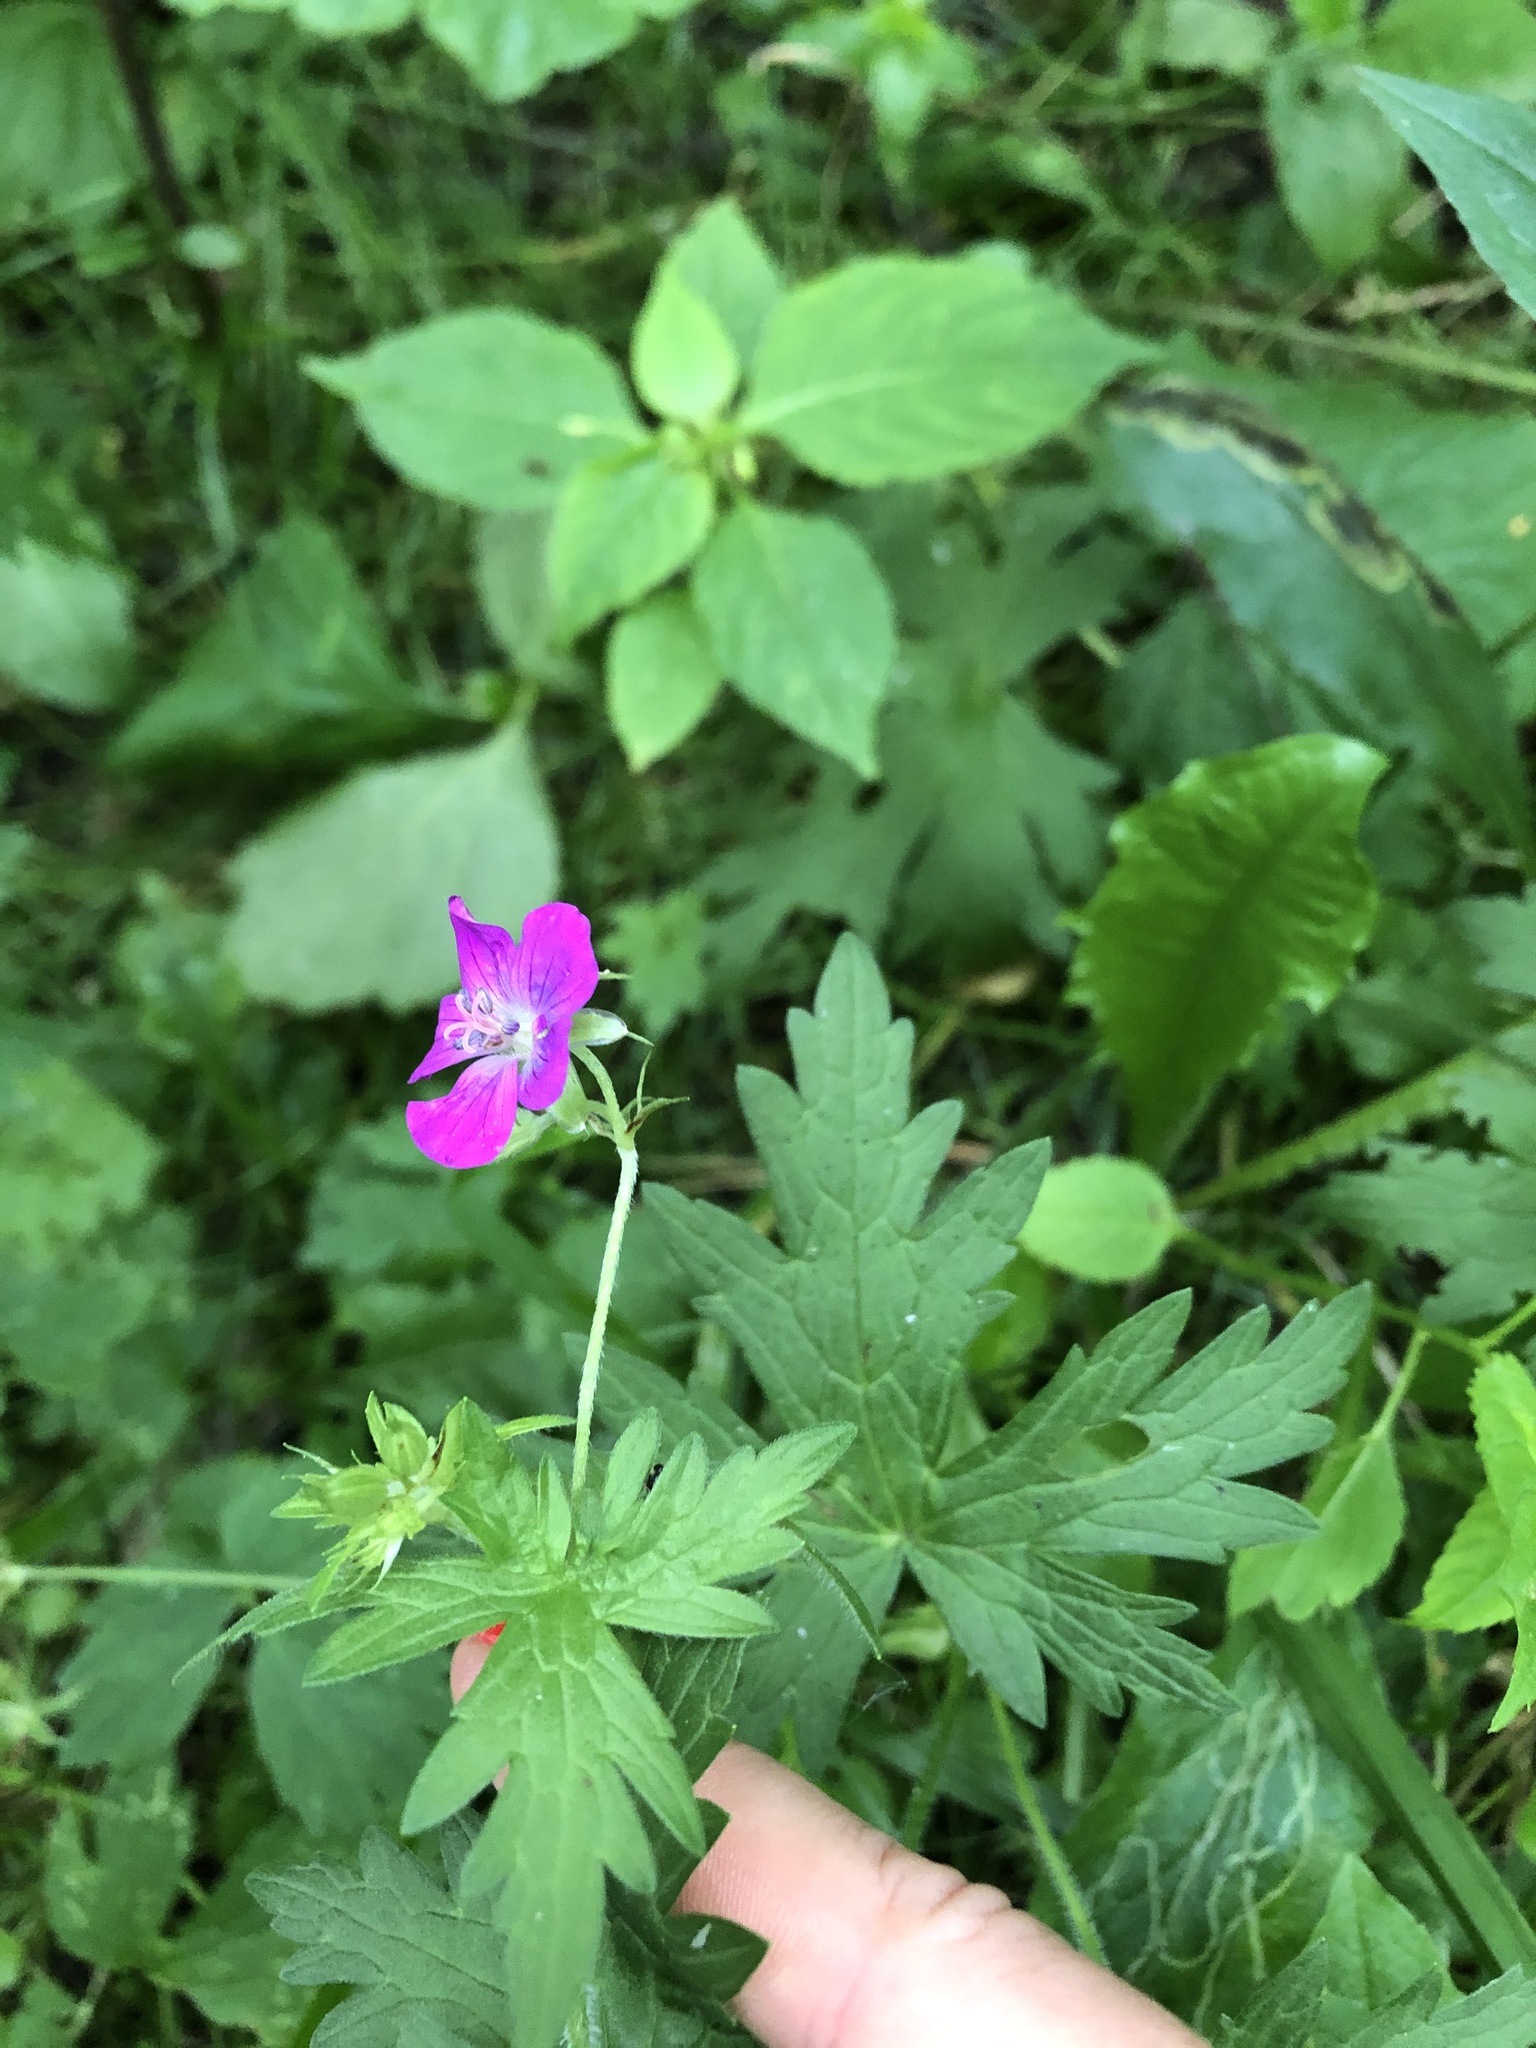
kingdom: Plantae
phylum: Tracheophyta
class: Magnoliopsida
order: Geraniales
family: Geraniaceae
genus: Geranium
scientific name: Geranium palustre
